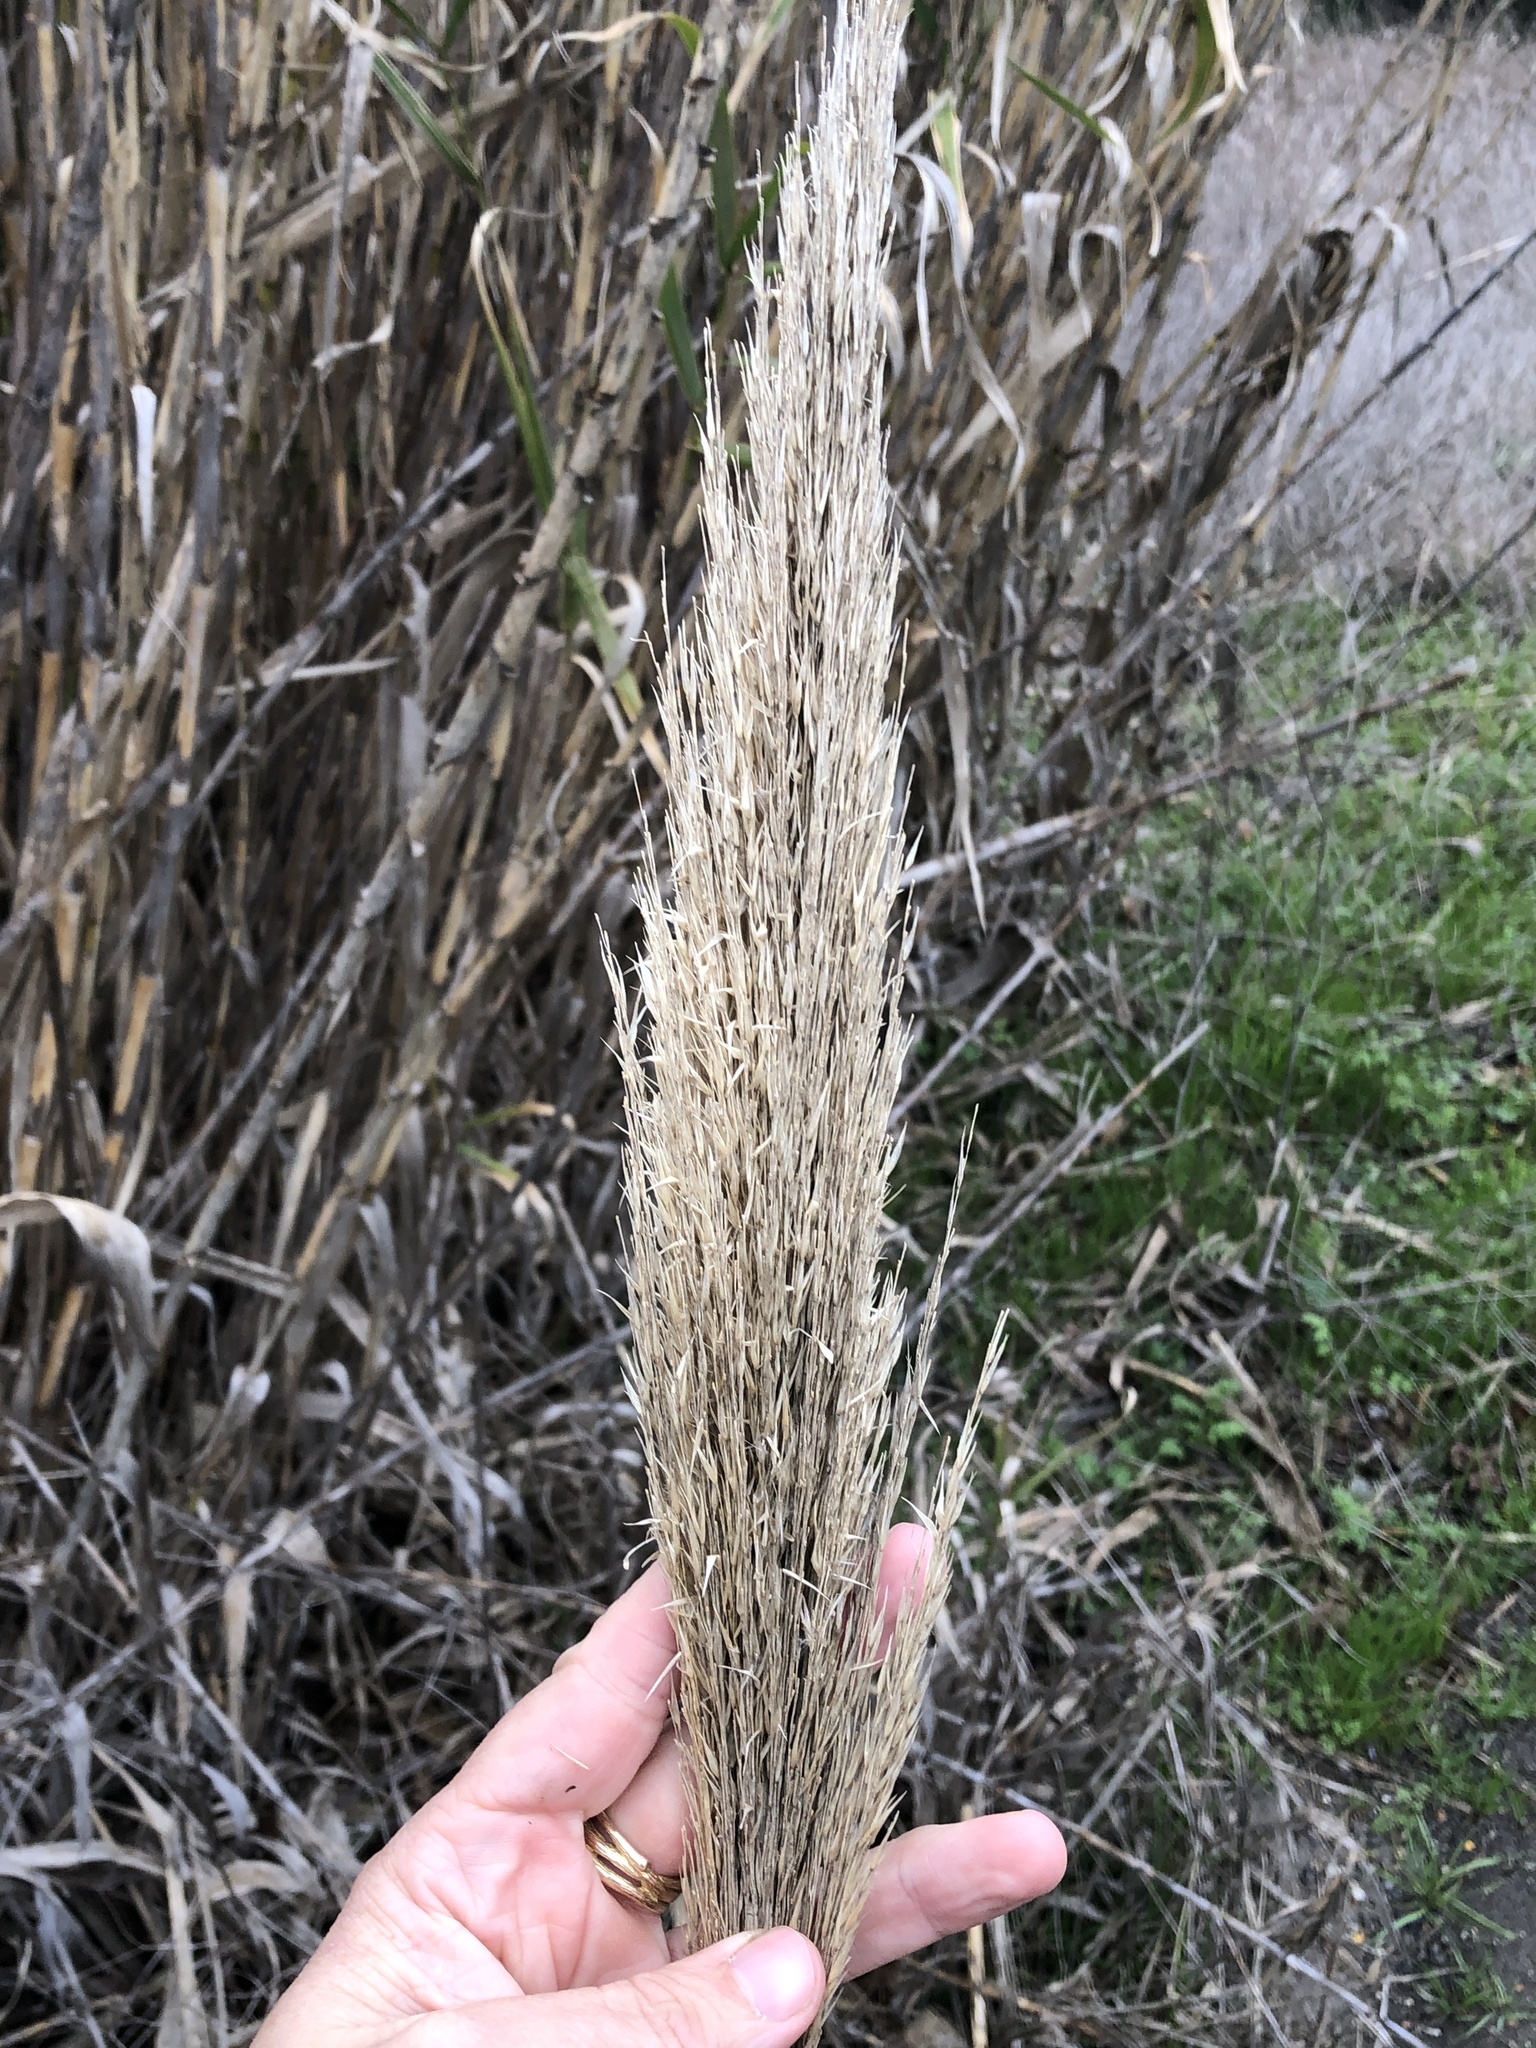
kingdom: Plantae
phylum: Tracheophyta
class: Liliopsida
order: Poales
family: Poaceae
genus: Arundo
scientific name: Arundo donax
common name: Giant reed
